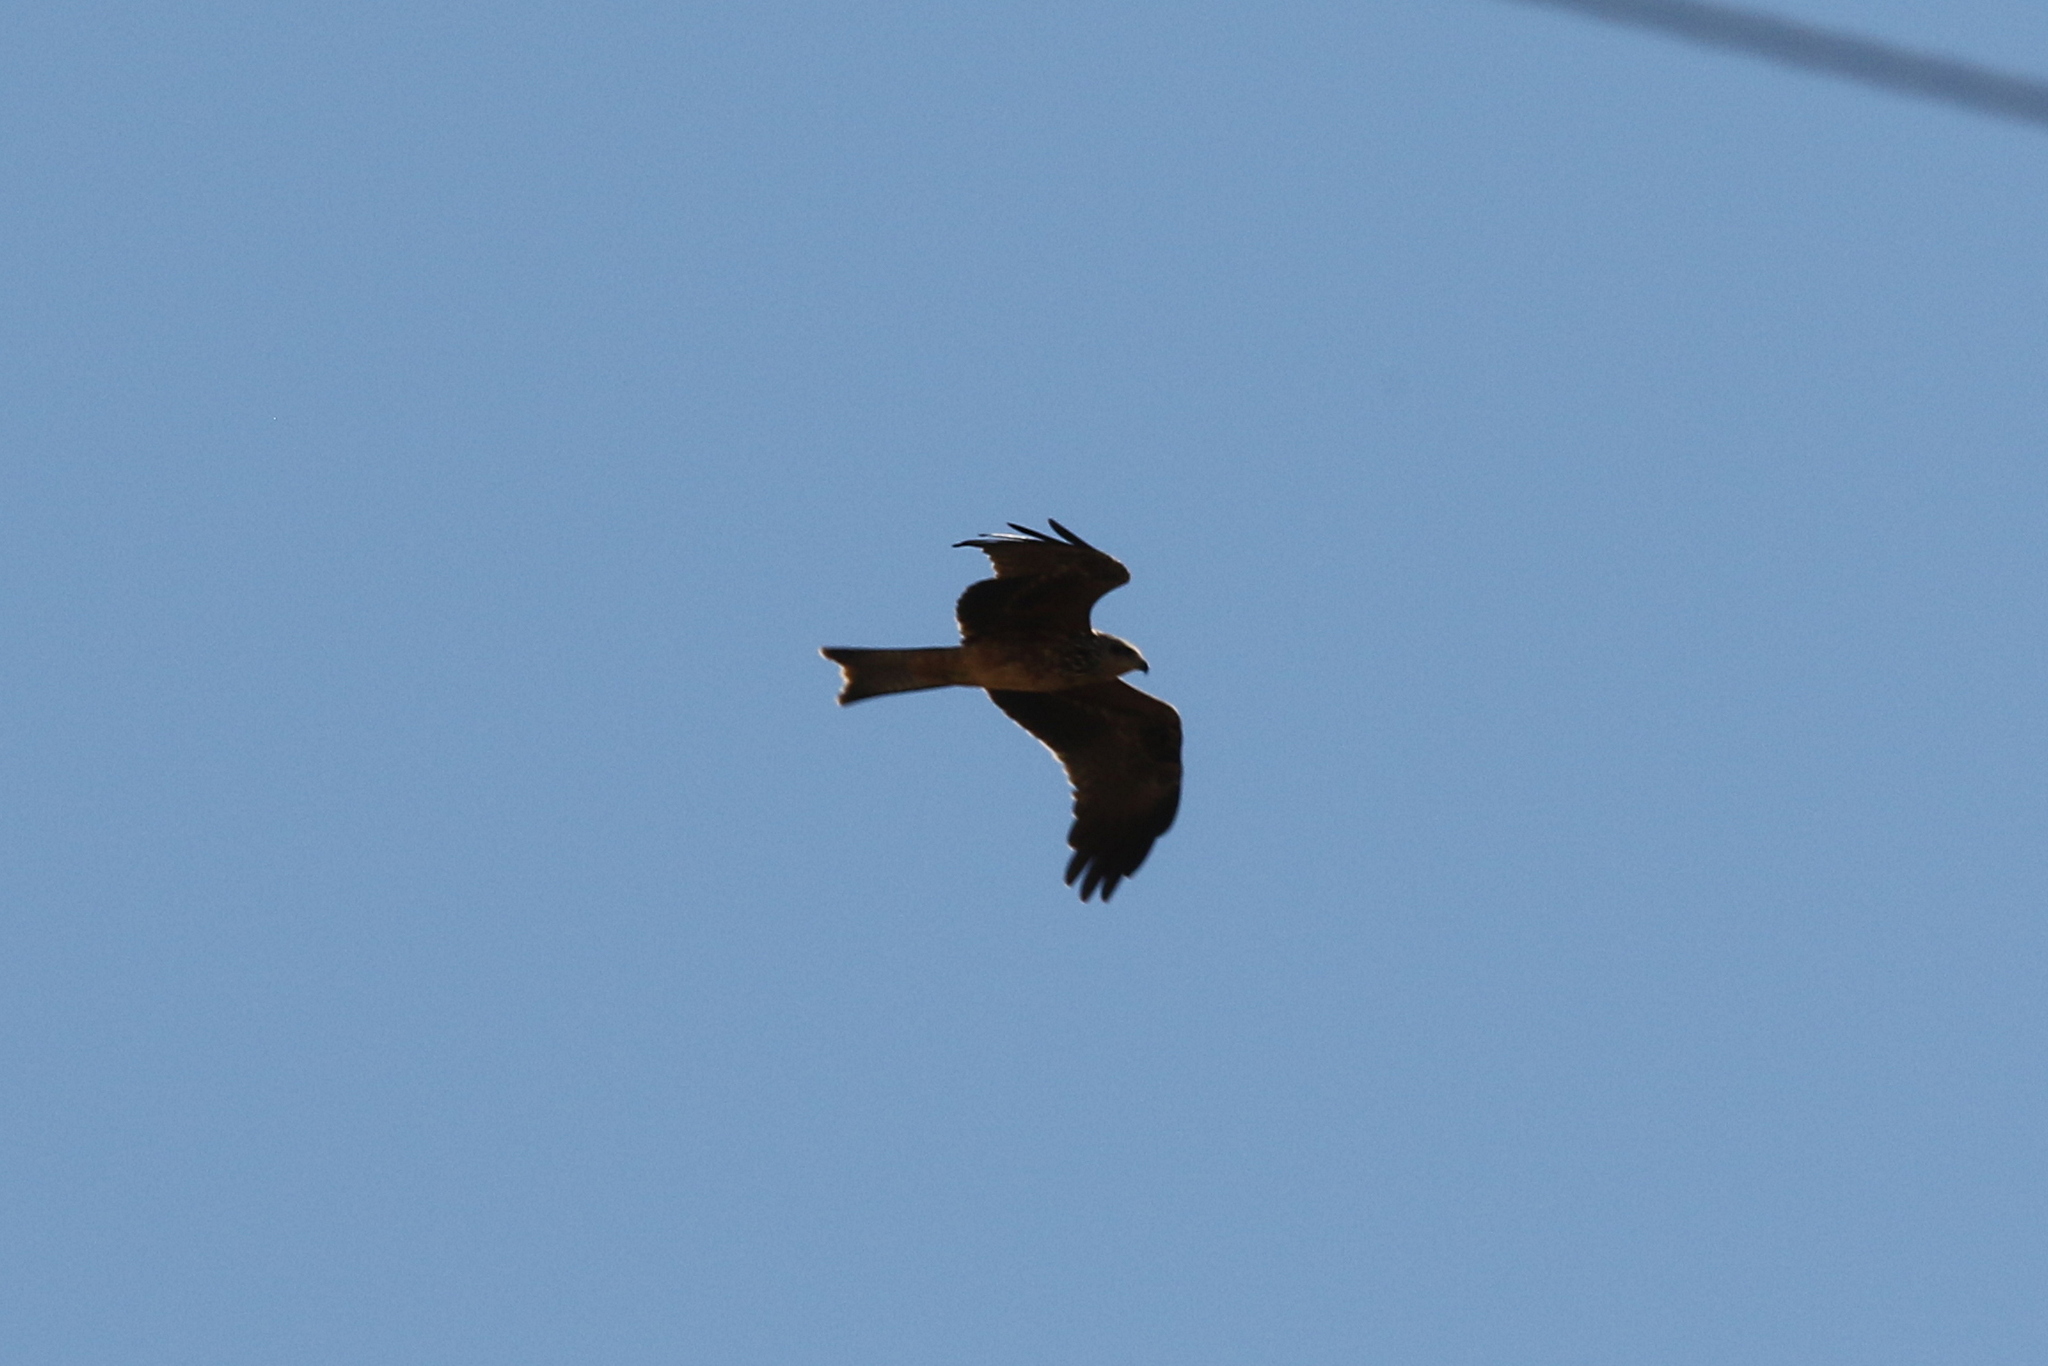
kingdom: Animalia
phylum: Chordata
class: Aves
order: Accipitriformes
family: Accipitridae
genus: Milvus
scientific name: Milvus migrans
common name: Black kite
